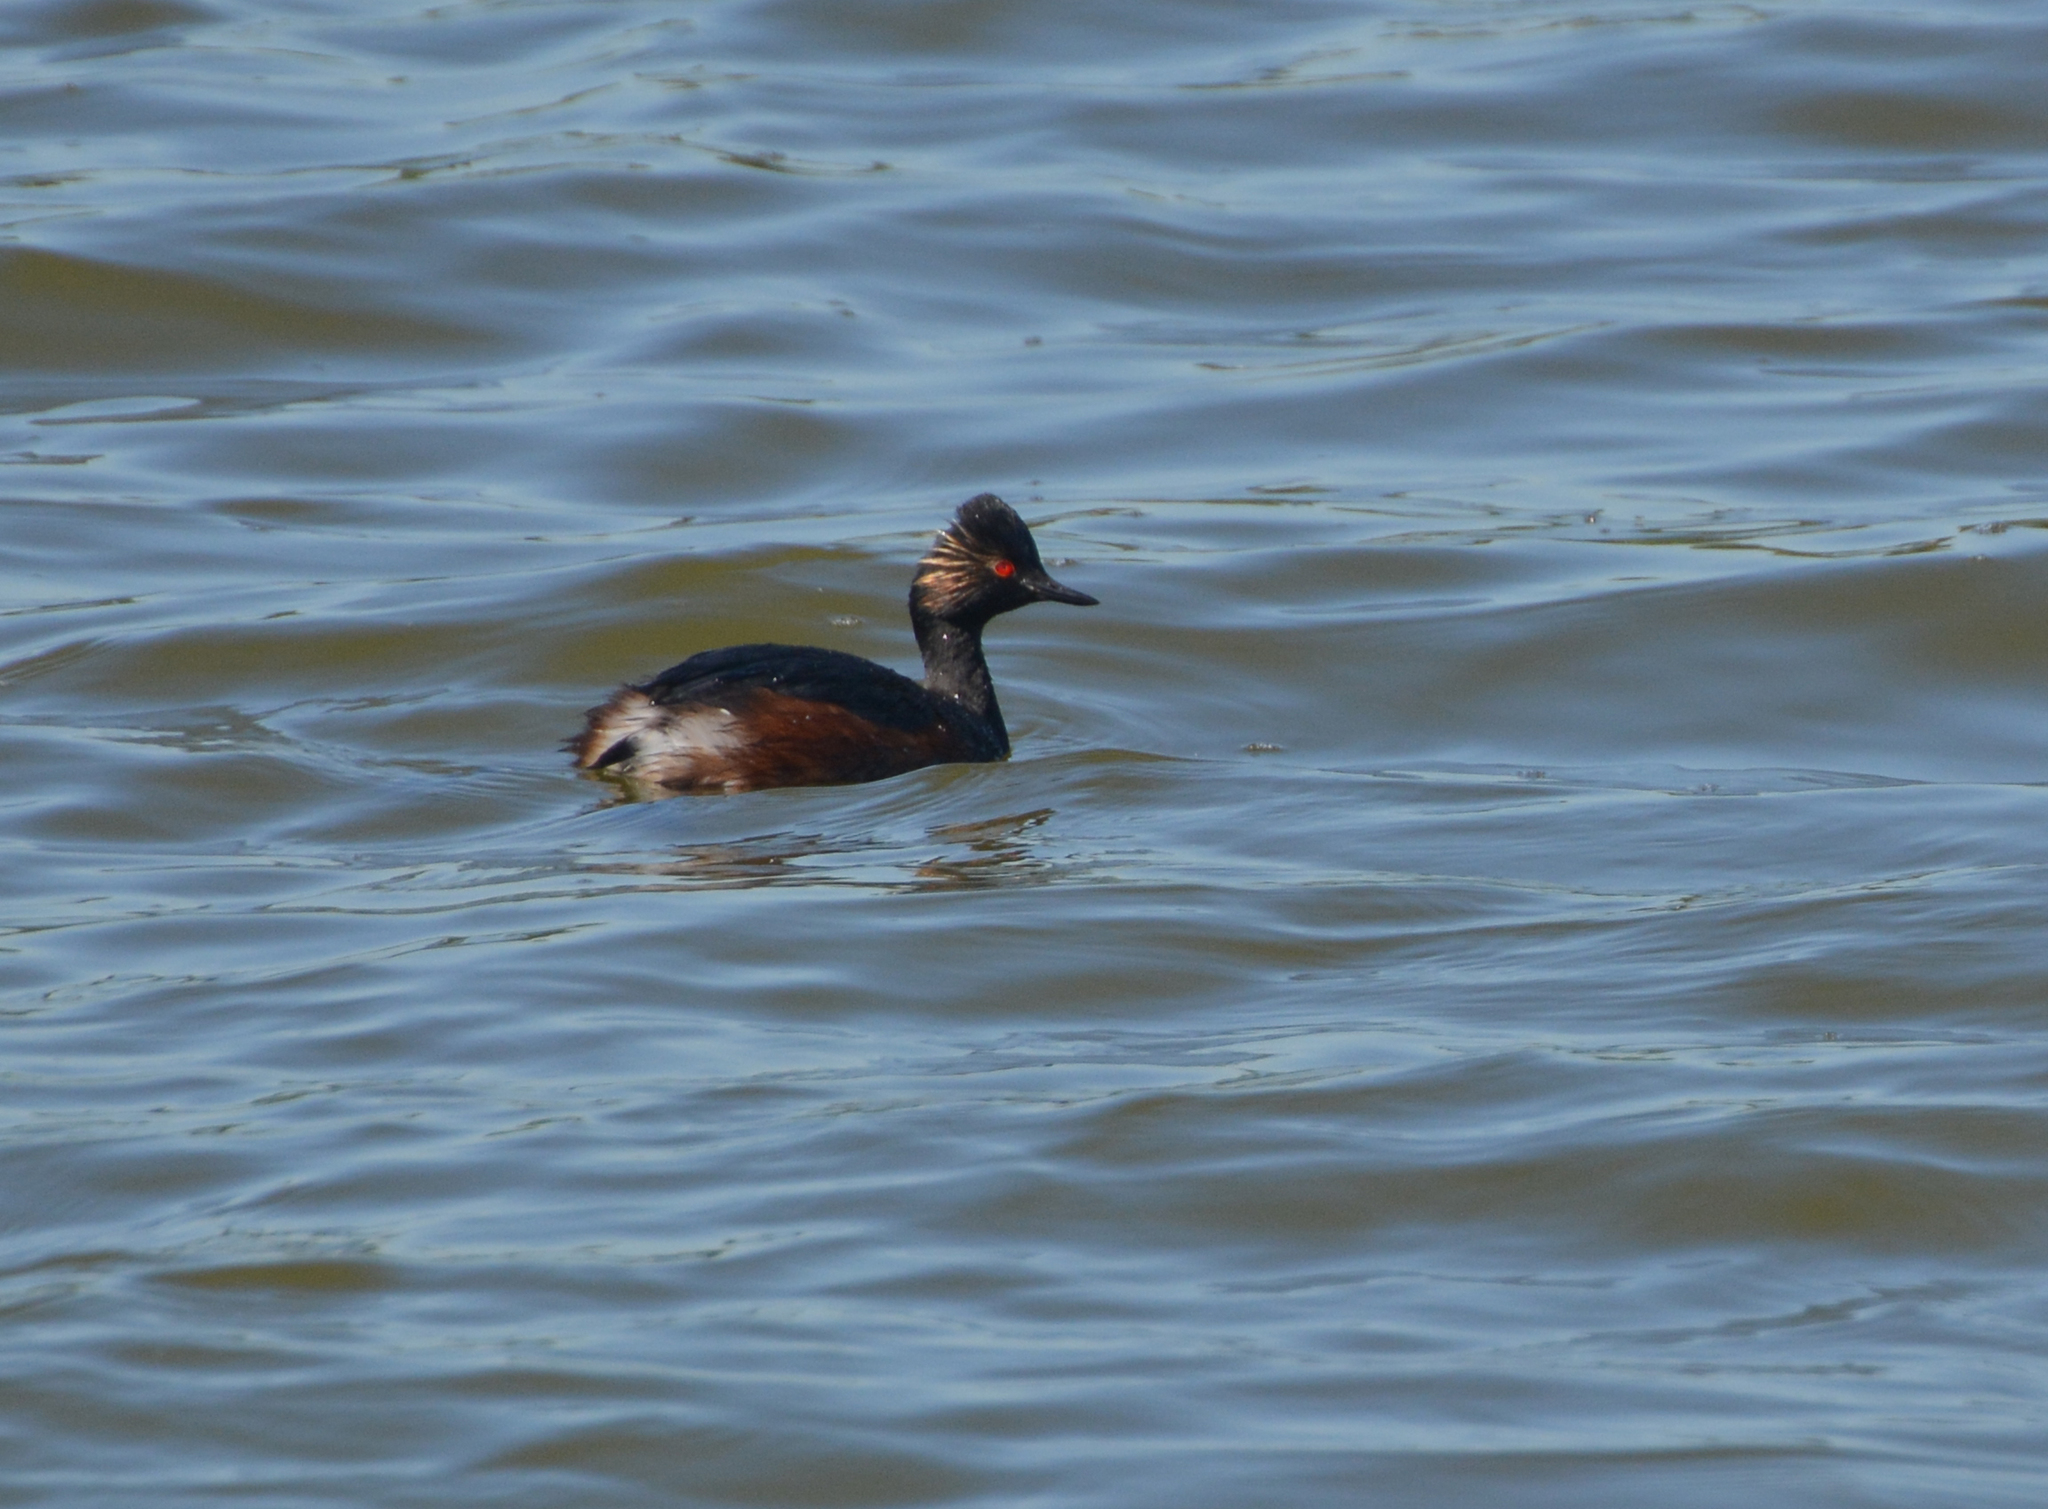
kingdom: Animalia
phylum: Chordata
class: Aves
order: Podicipediformes
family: Podicipedidae
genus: Podiceps
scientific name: Podiceps nigricollis
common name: Black-necked grebe
